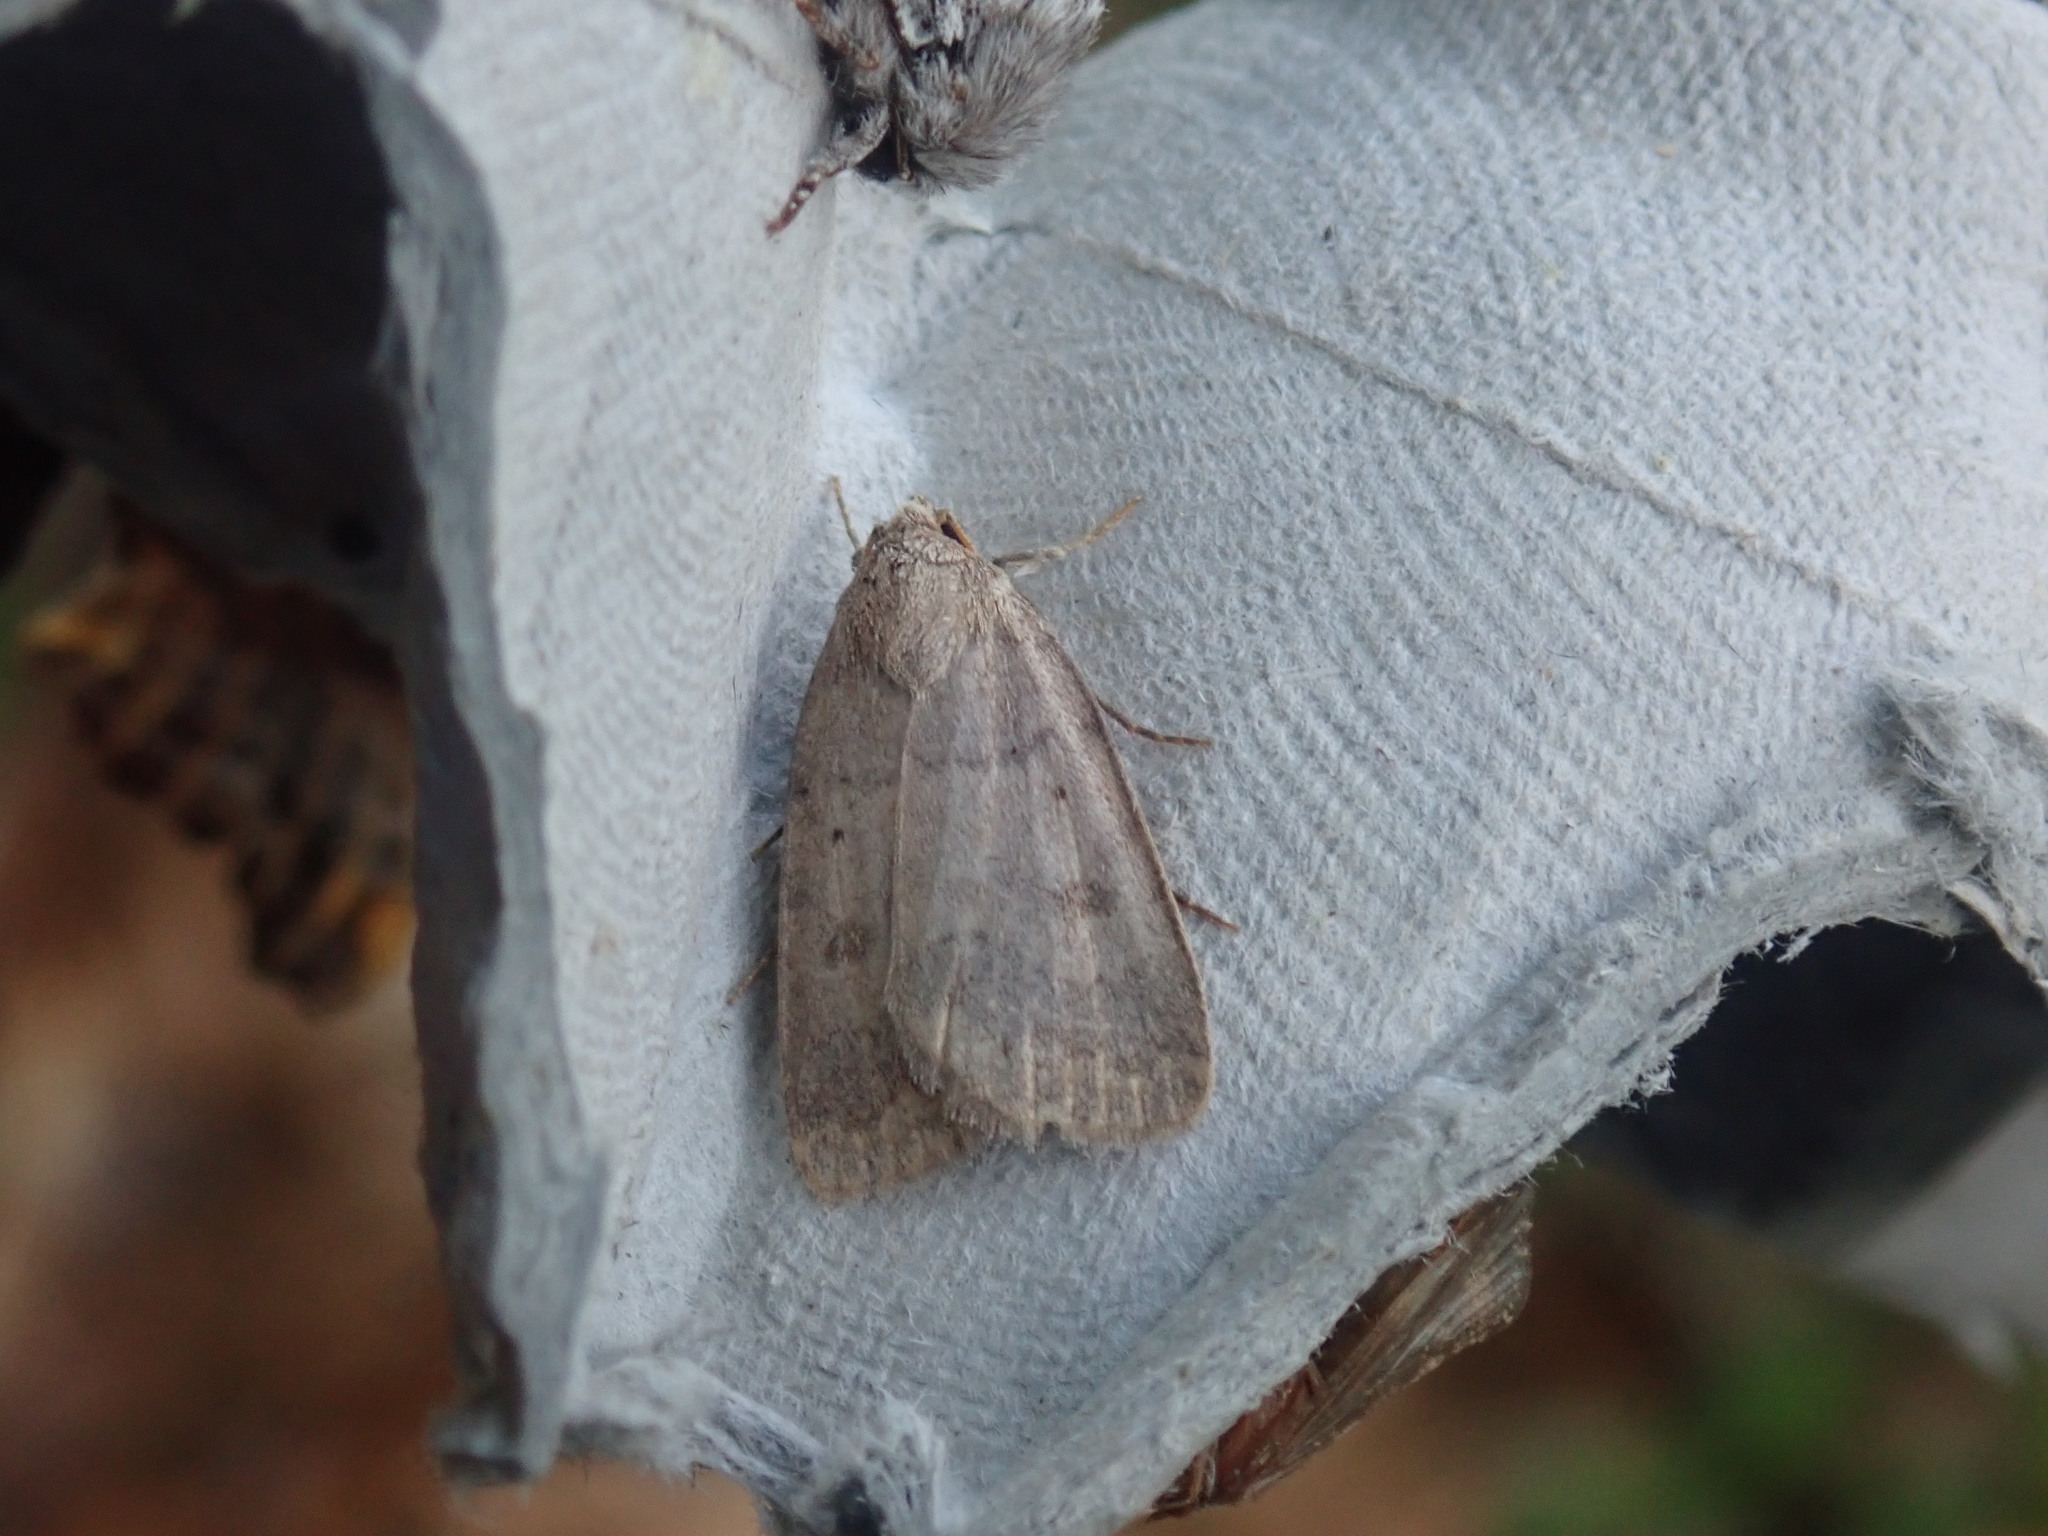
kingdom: Animalia
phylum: Arthropoda
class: Insecta
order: Lepidoptera
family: Noctuidae
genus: Athetis
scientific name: Athetis tarda
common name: Slowpoke moth
